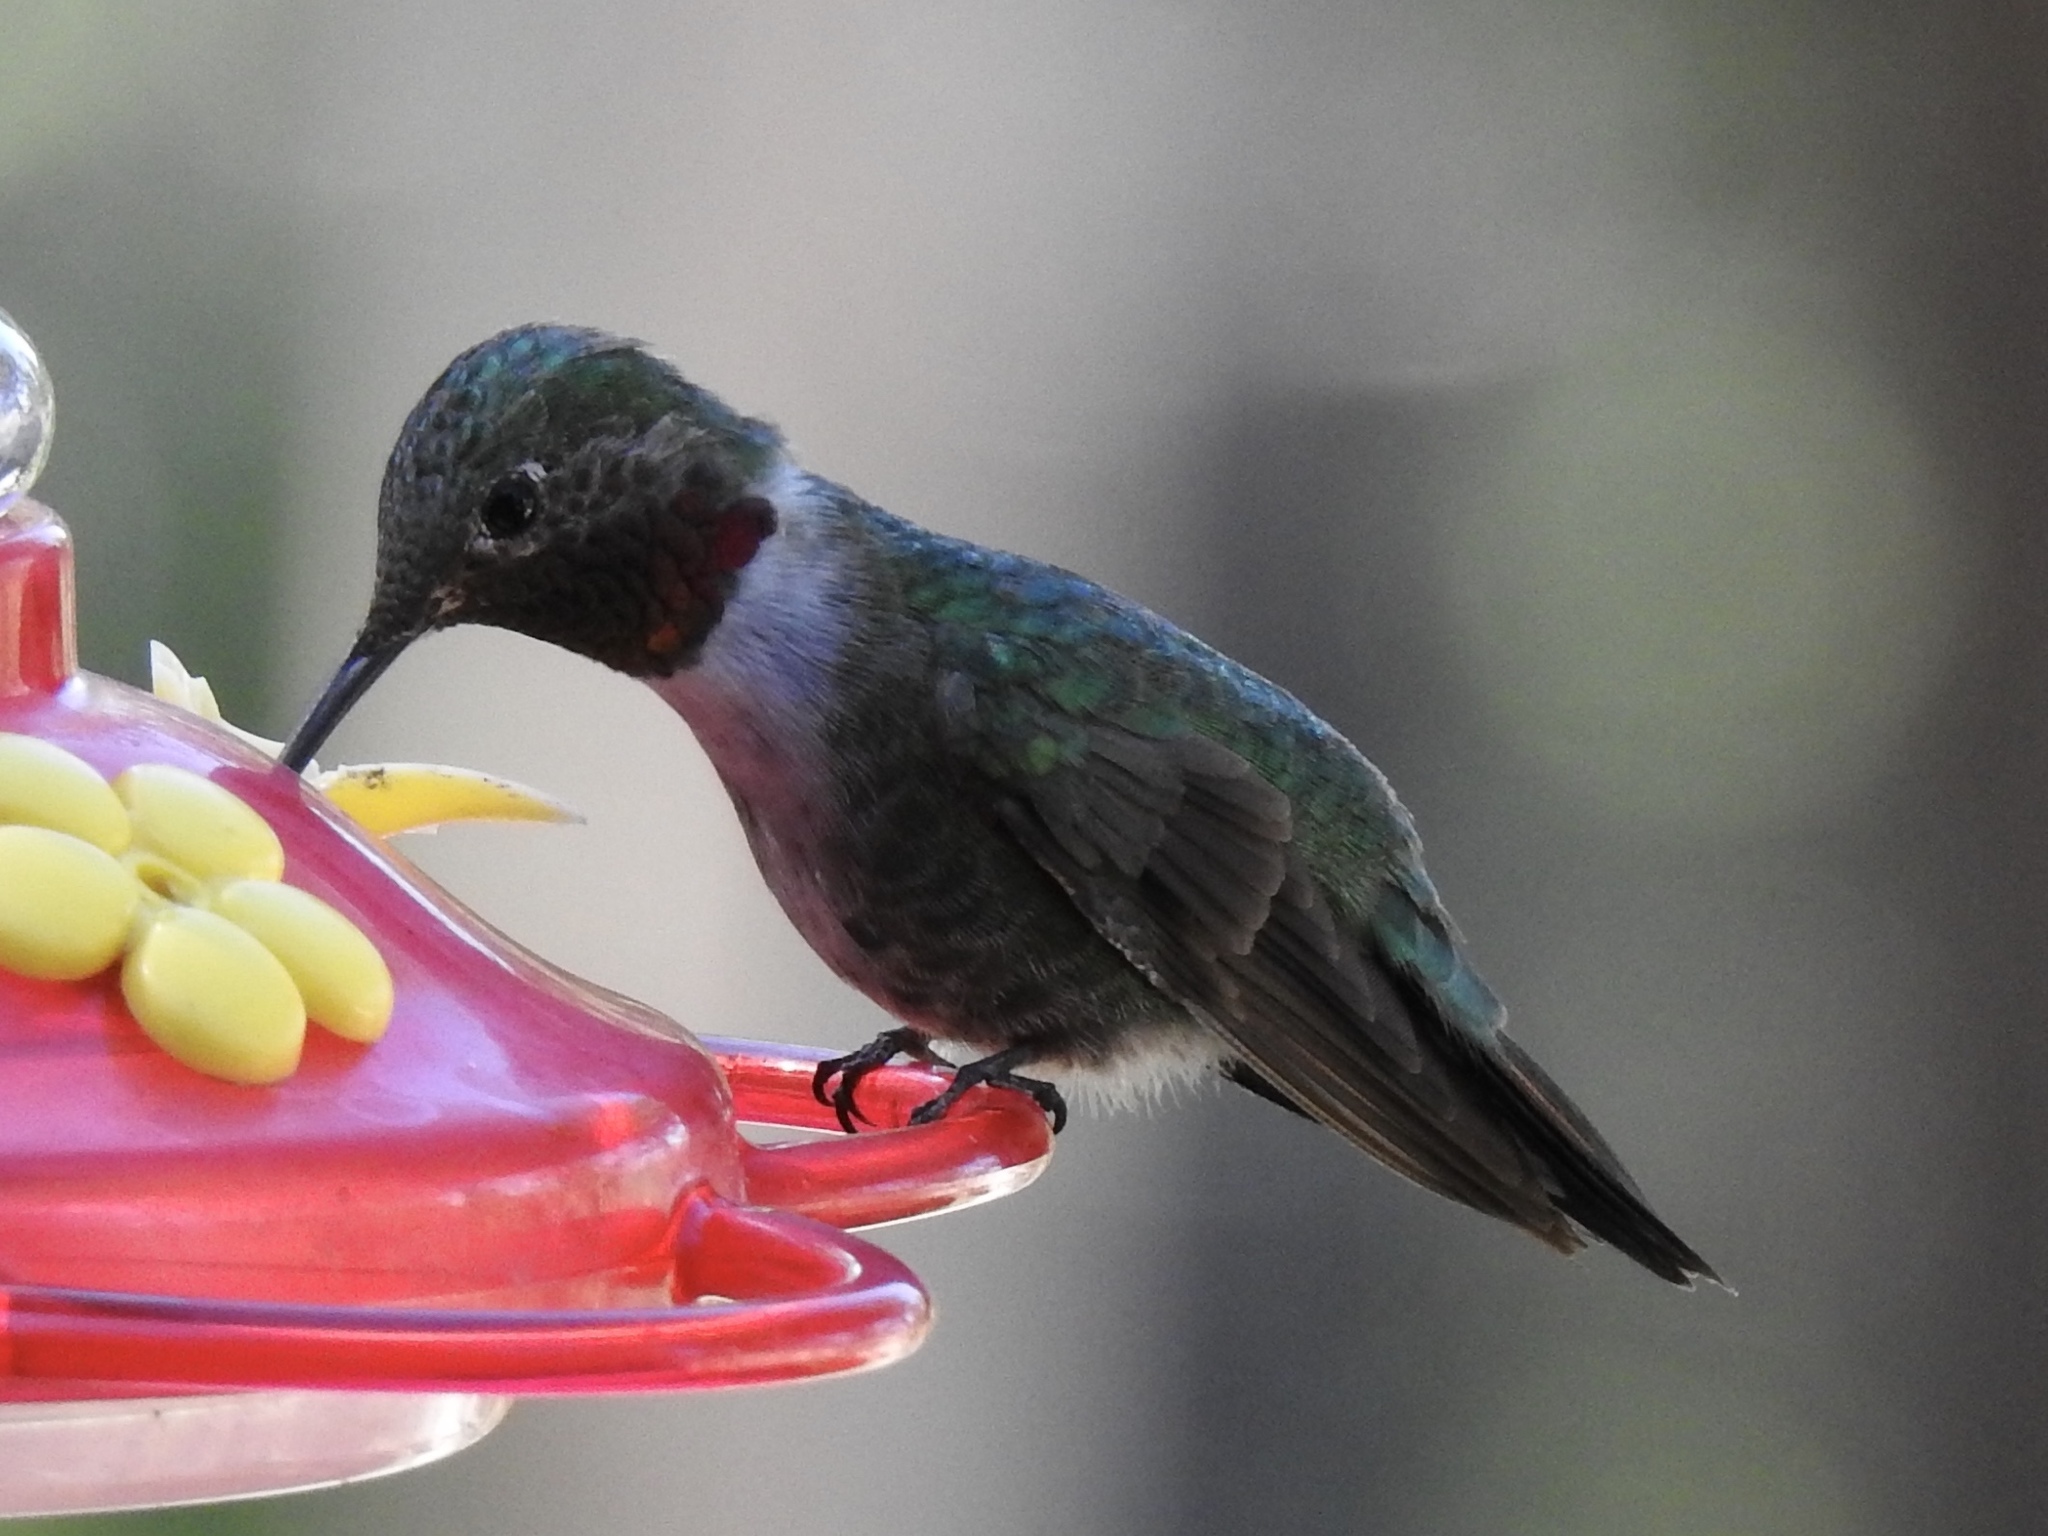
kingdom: Animalia
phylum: Chordata
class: Aves
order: Apodiformes
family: Trochilidae
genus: Selasphorus
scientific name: Selasphorus platycercus
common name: Broad-tailed hummingbird
